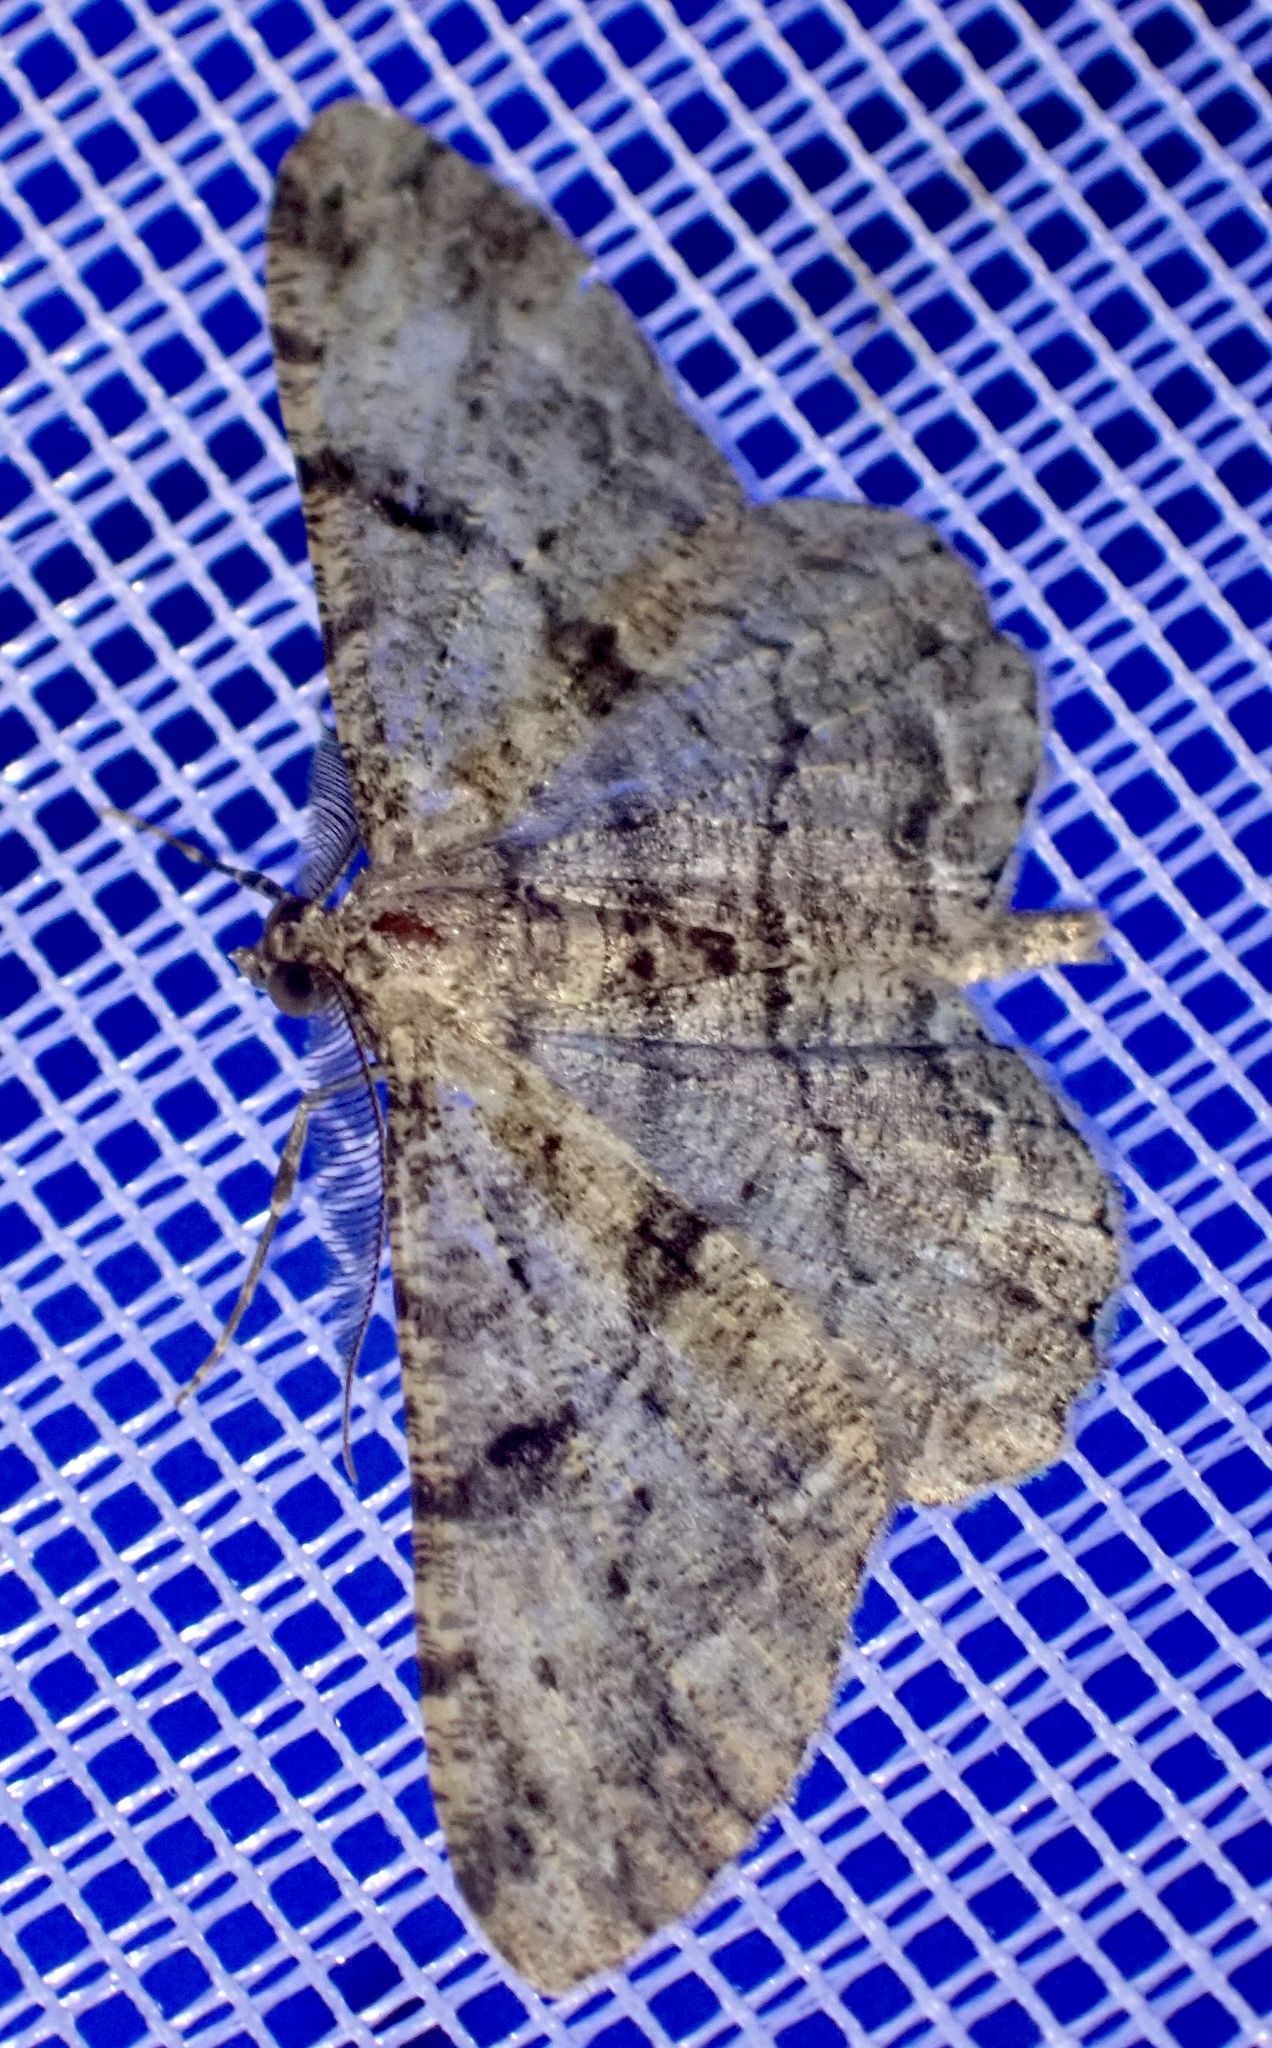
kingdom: Animalia
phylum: Arthropoda
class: Insecta
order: Lepidoptera
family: Geometridae
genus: Peribatodes
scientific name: Peribatodes rhomboidaria
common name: Willow beauty
